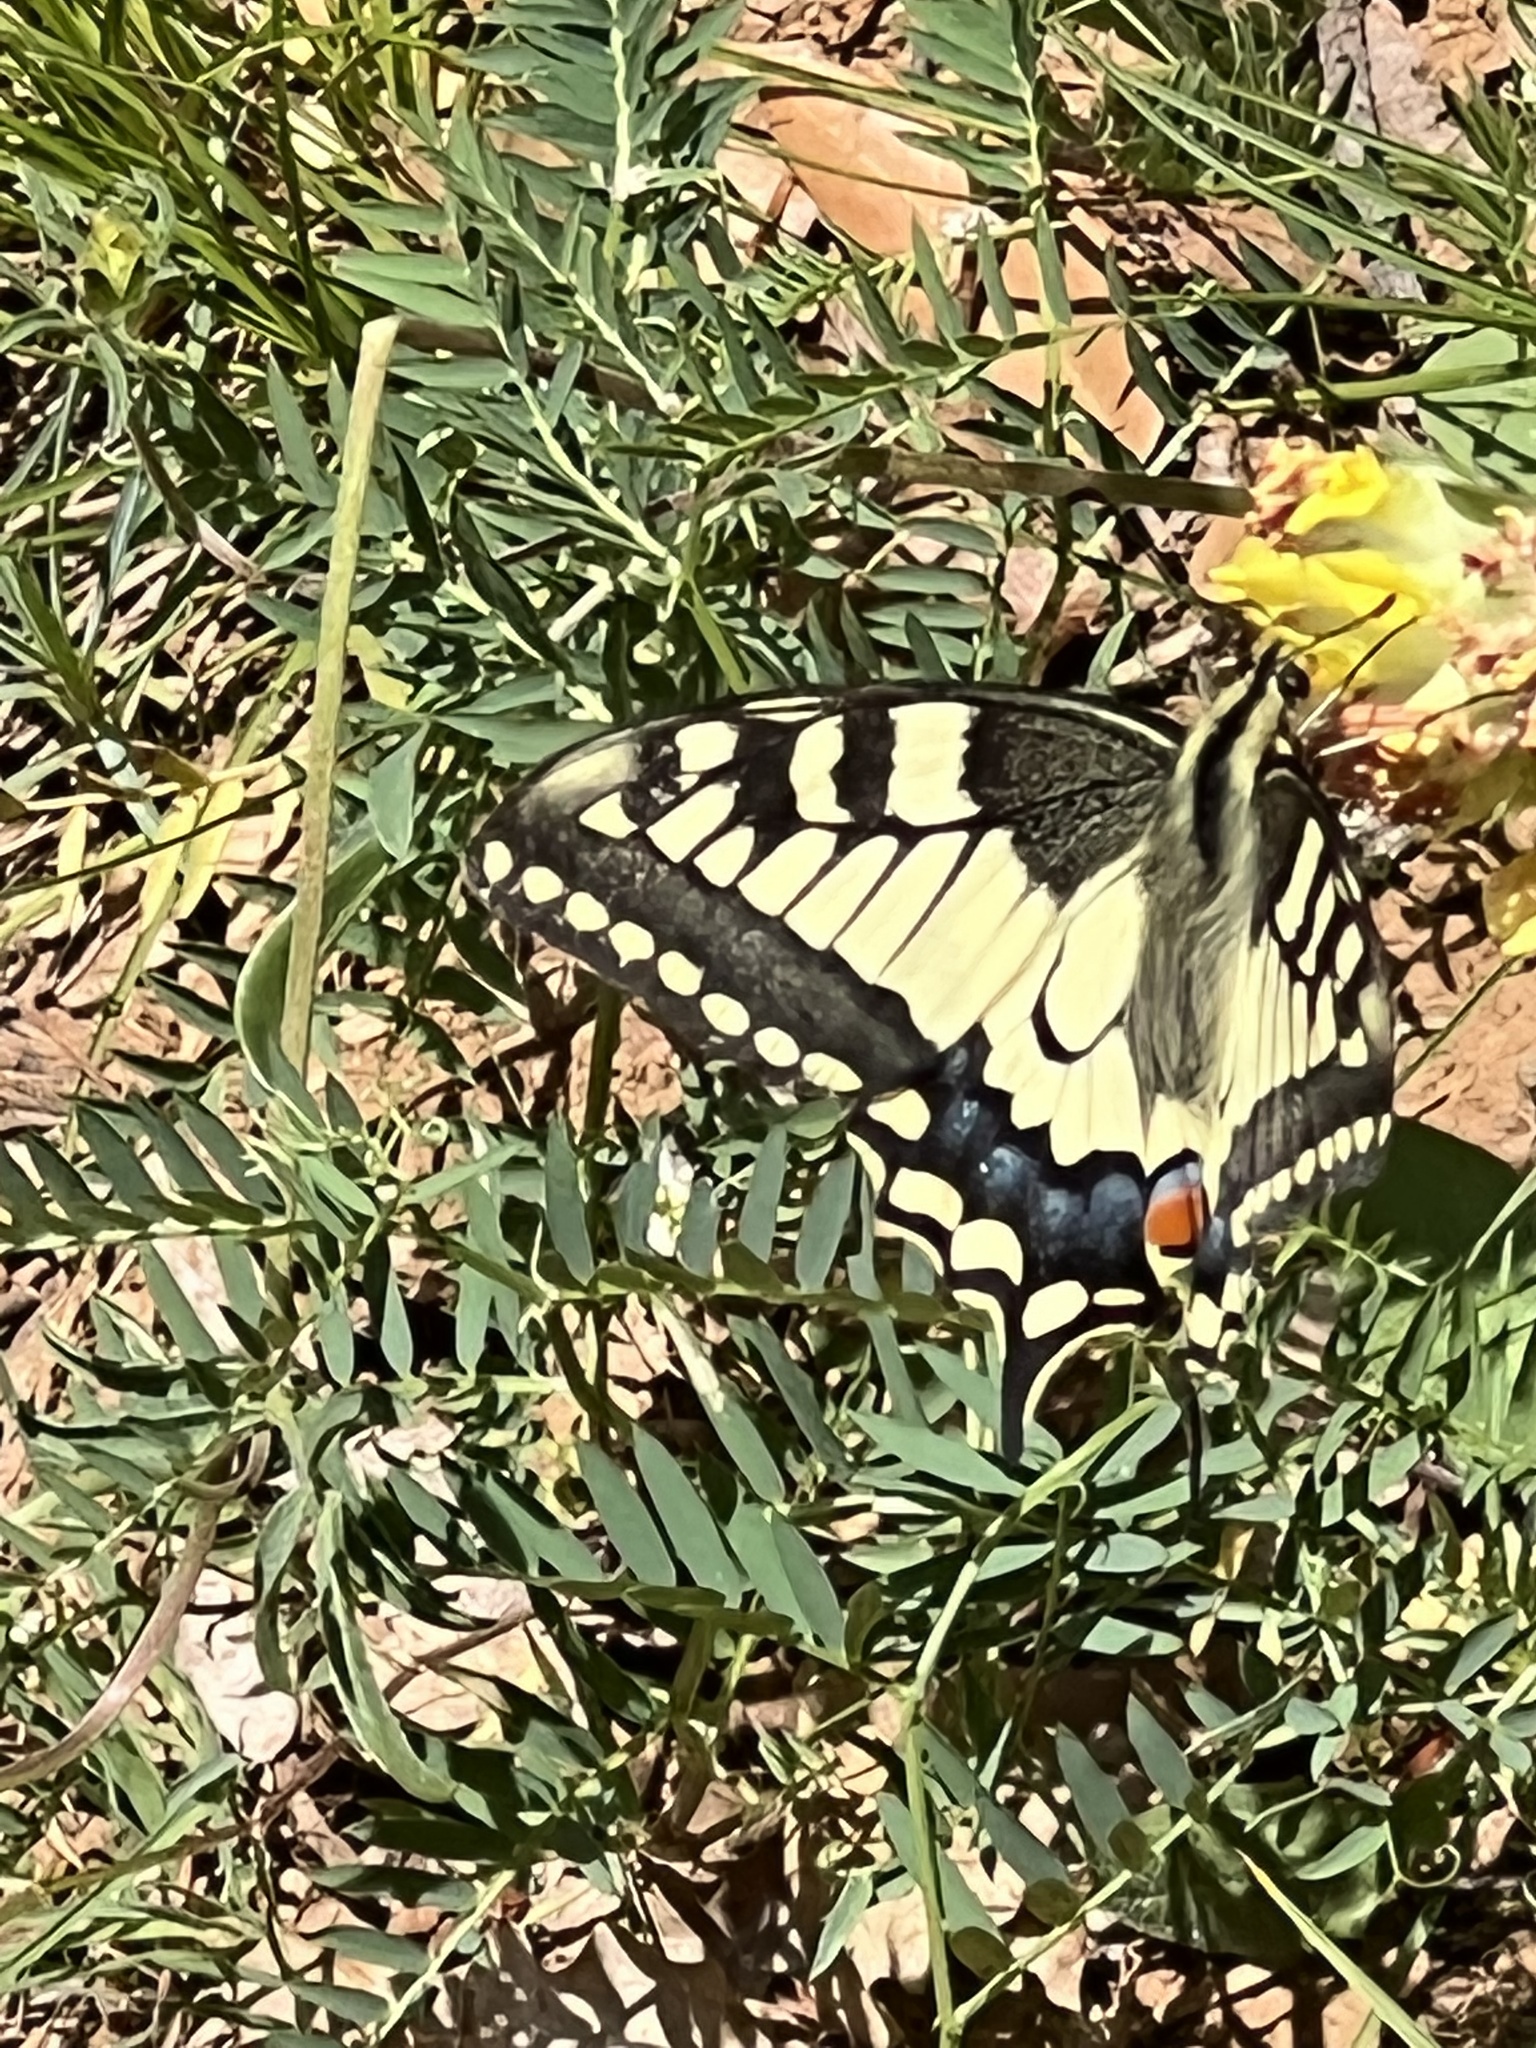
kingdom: Animalia
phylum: Arthropoda
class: Insecta
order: Lepidoptera
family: Papilionidae
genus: Papilio
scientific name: Papilio machaon
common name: Swallowtail
